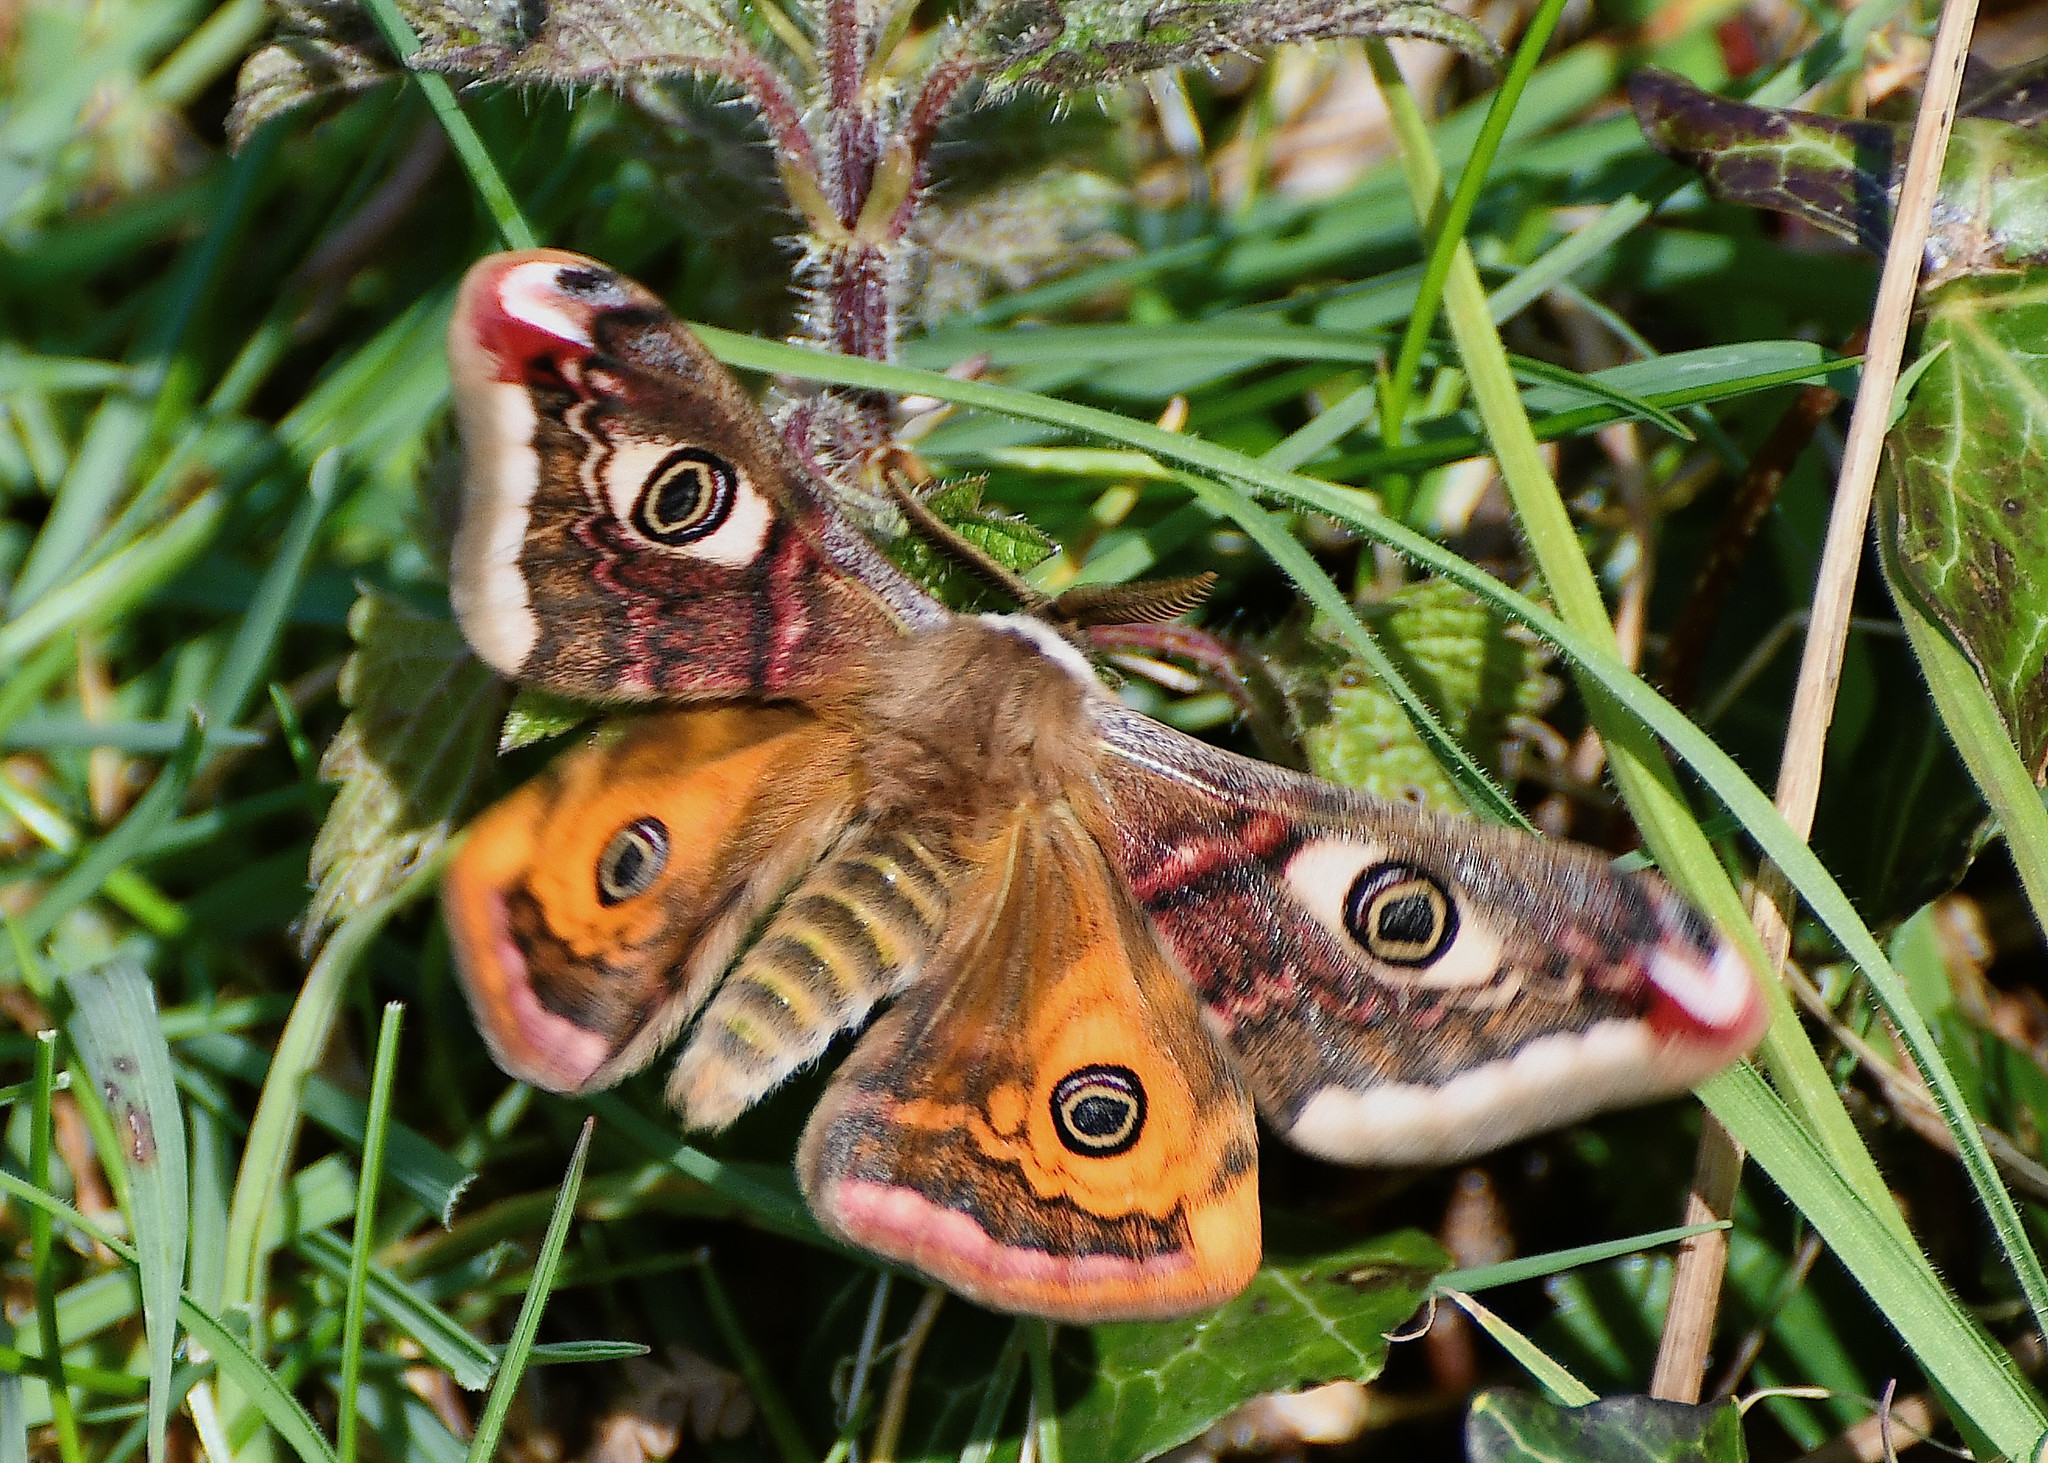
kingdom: Animalia
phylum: Arthropoda
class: Insecta
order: Lepidoptera
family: Saturniidae
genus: Saturnia
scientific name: Saturnia pavonia
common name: Emperor moth
